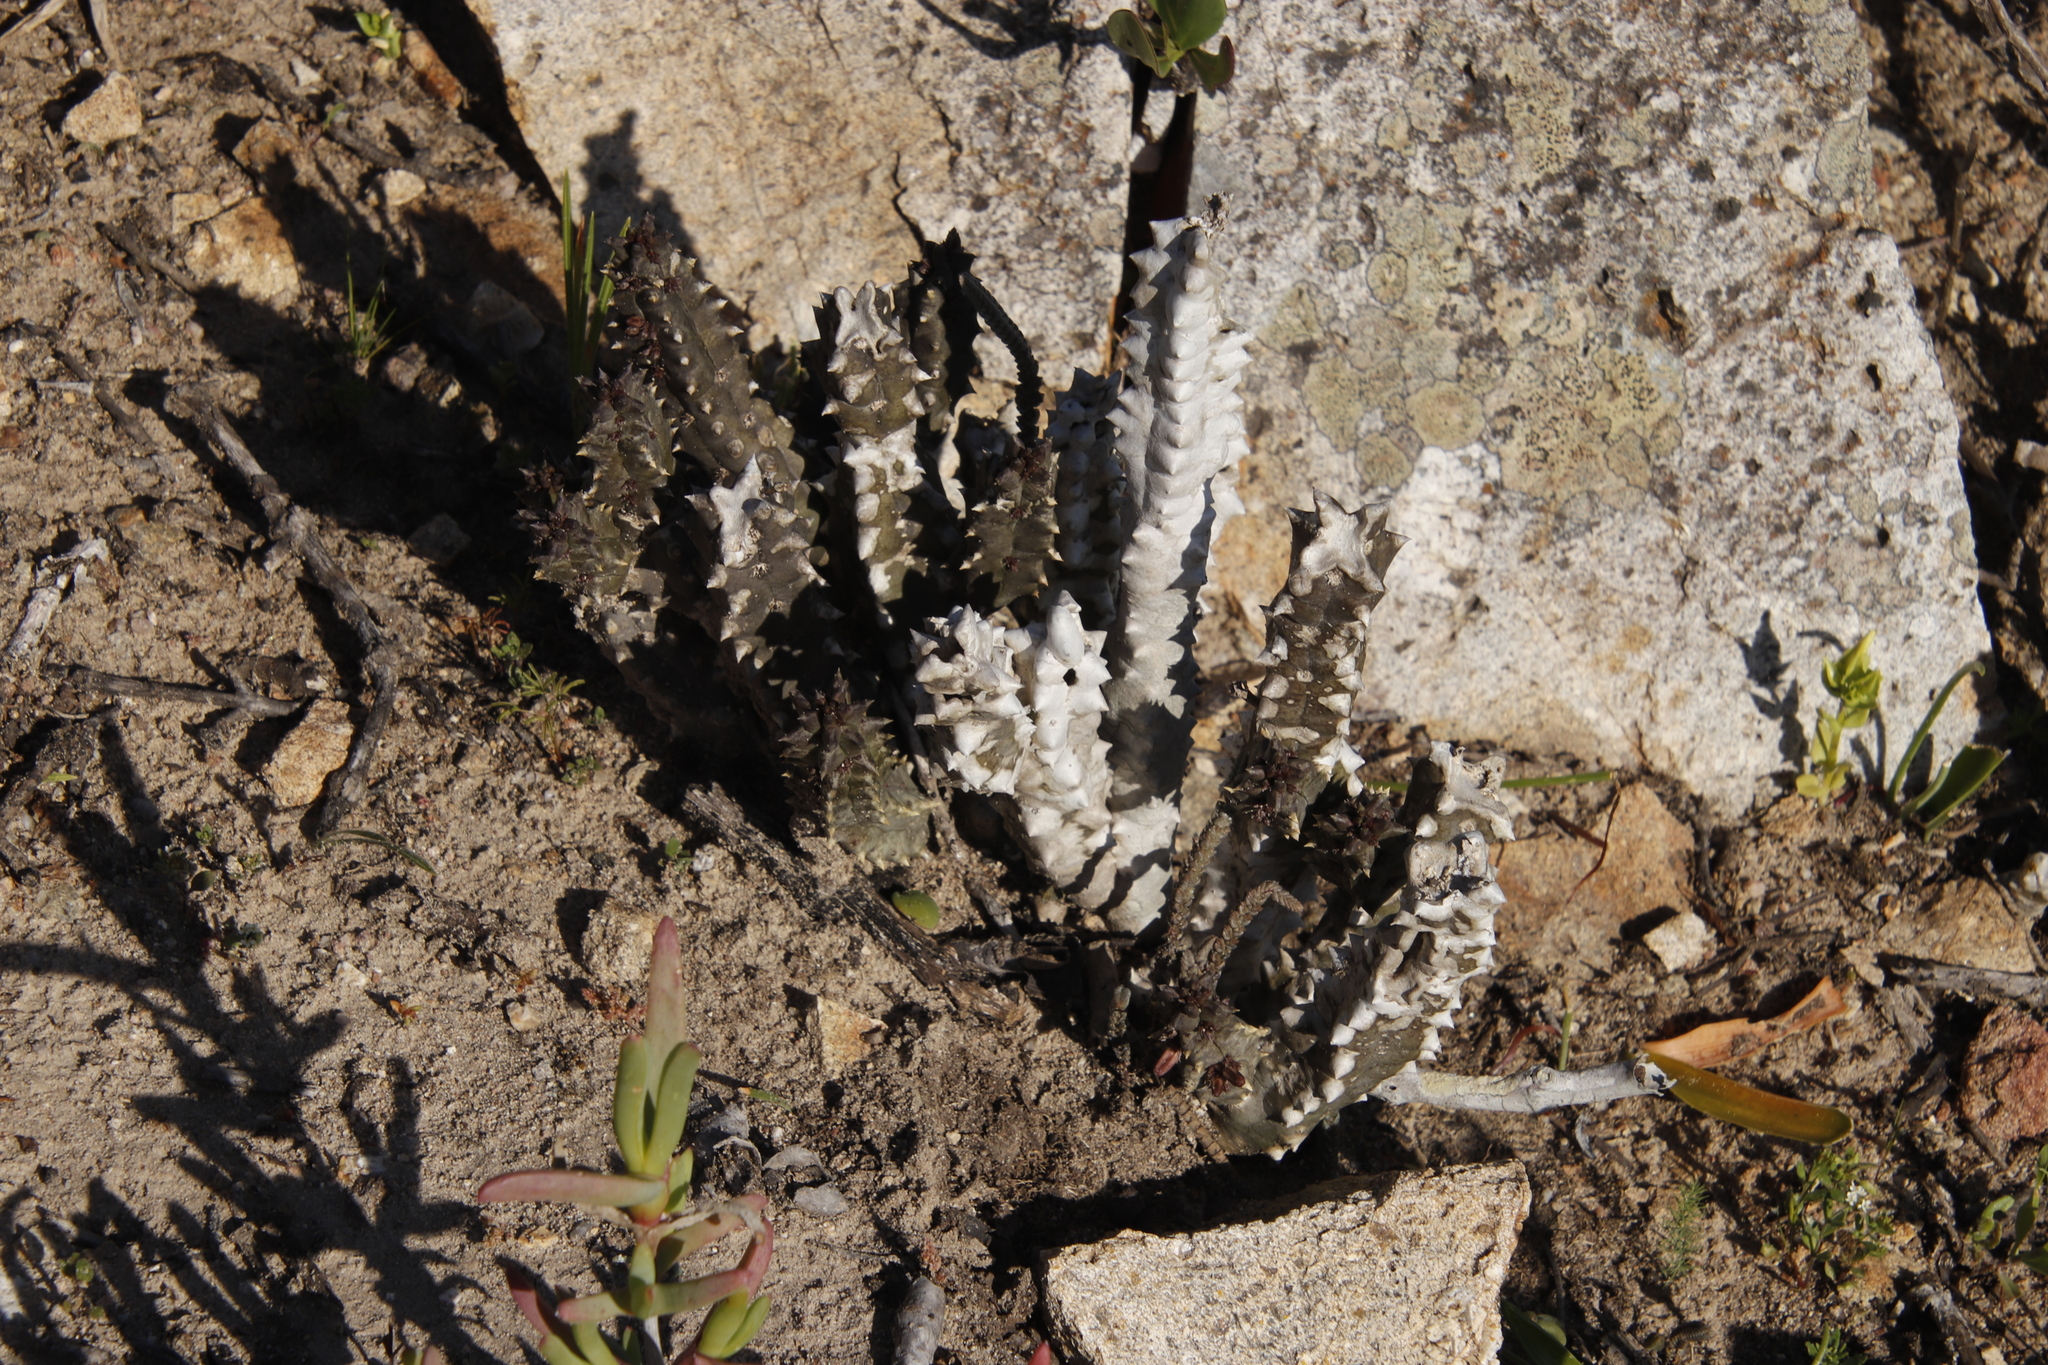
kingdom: Plantae
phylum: Tracheophyta
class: Magnoliopsida
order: Gentianales
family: Apocynaceae
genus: Ceropegia
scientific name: Ceropegia incarnata
